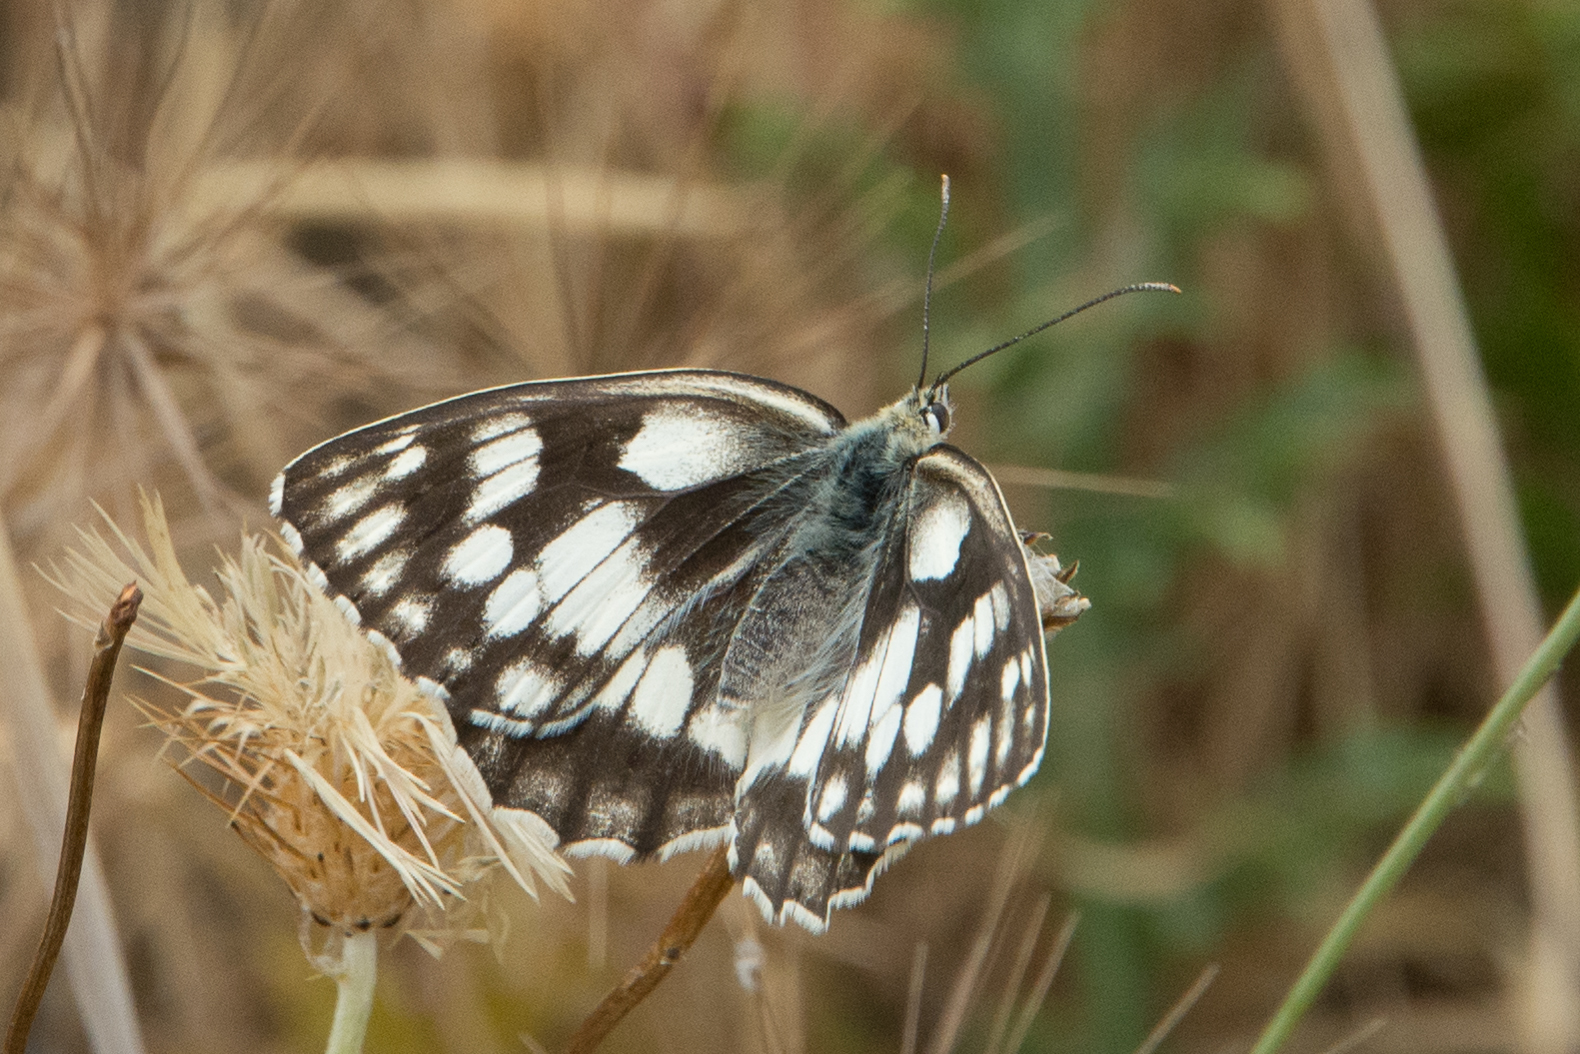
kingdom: Animalia
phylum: Arthropoda
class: Insecta
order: Lepidoptera
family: Nymphalidae
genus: Melanargia
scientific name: Melanargia galathea
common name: Marbled white
